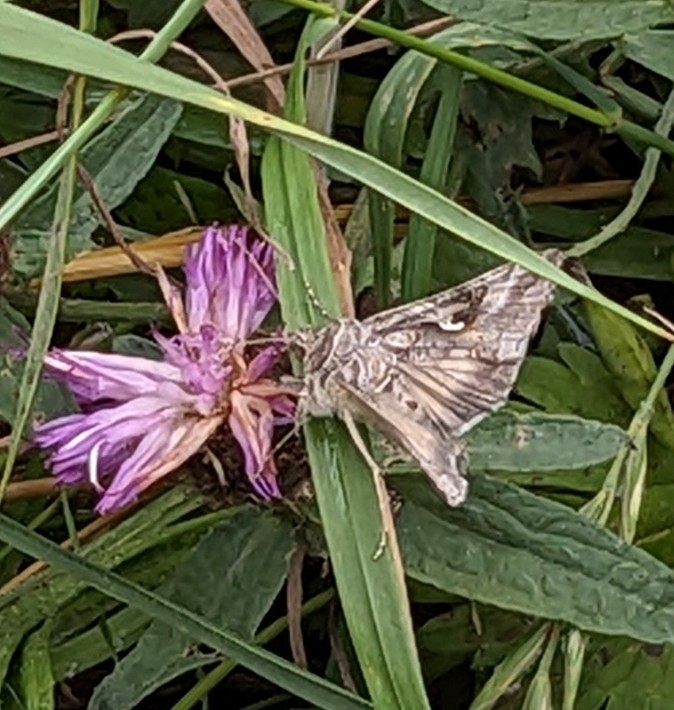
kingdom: Animalia
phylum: Arthropoda
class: Insecta
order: Lepidoptera
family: Noctuidae
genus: Autographa
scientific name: Autographa gamma
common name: Silver y
